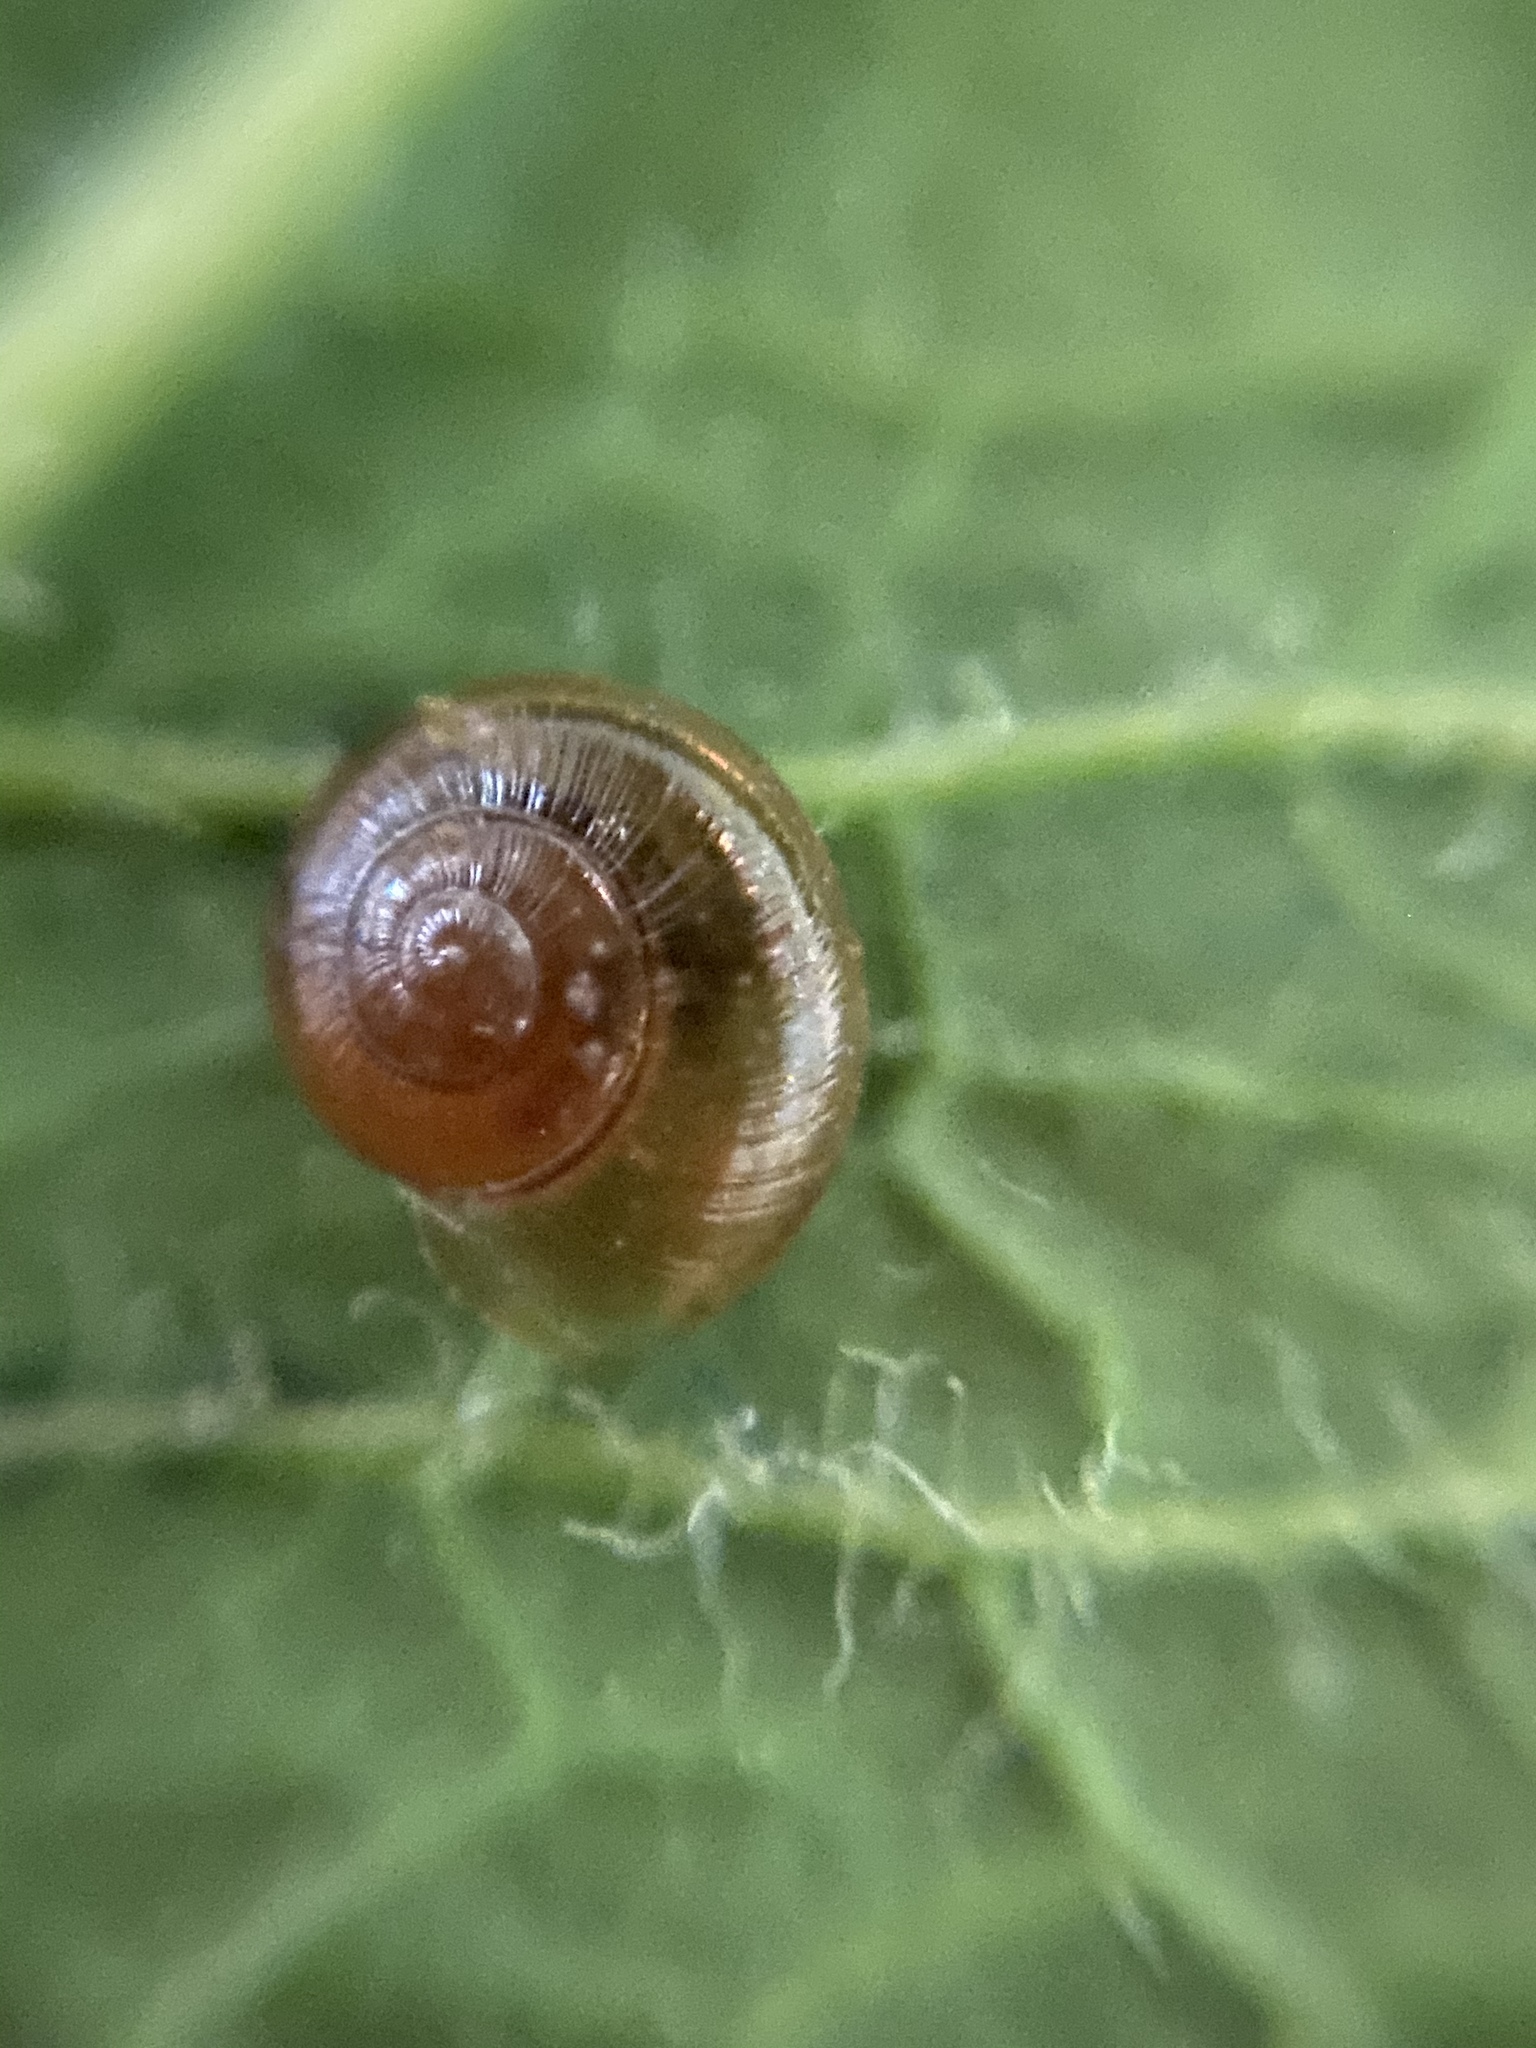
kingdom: Animalia
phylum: Mollusca
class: Gastropoda
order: Stylommatophora
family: Gastrodontidae
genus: Perpolita
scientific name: Perpolita electrina
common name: Amber glass
